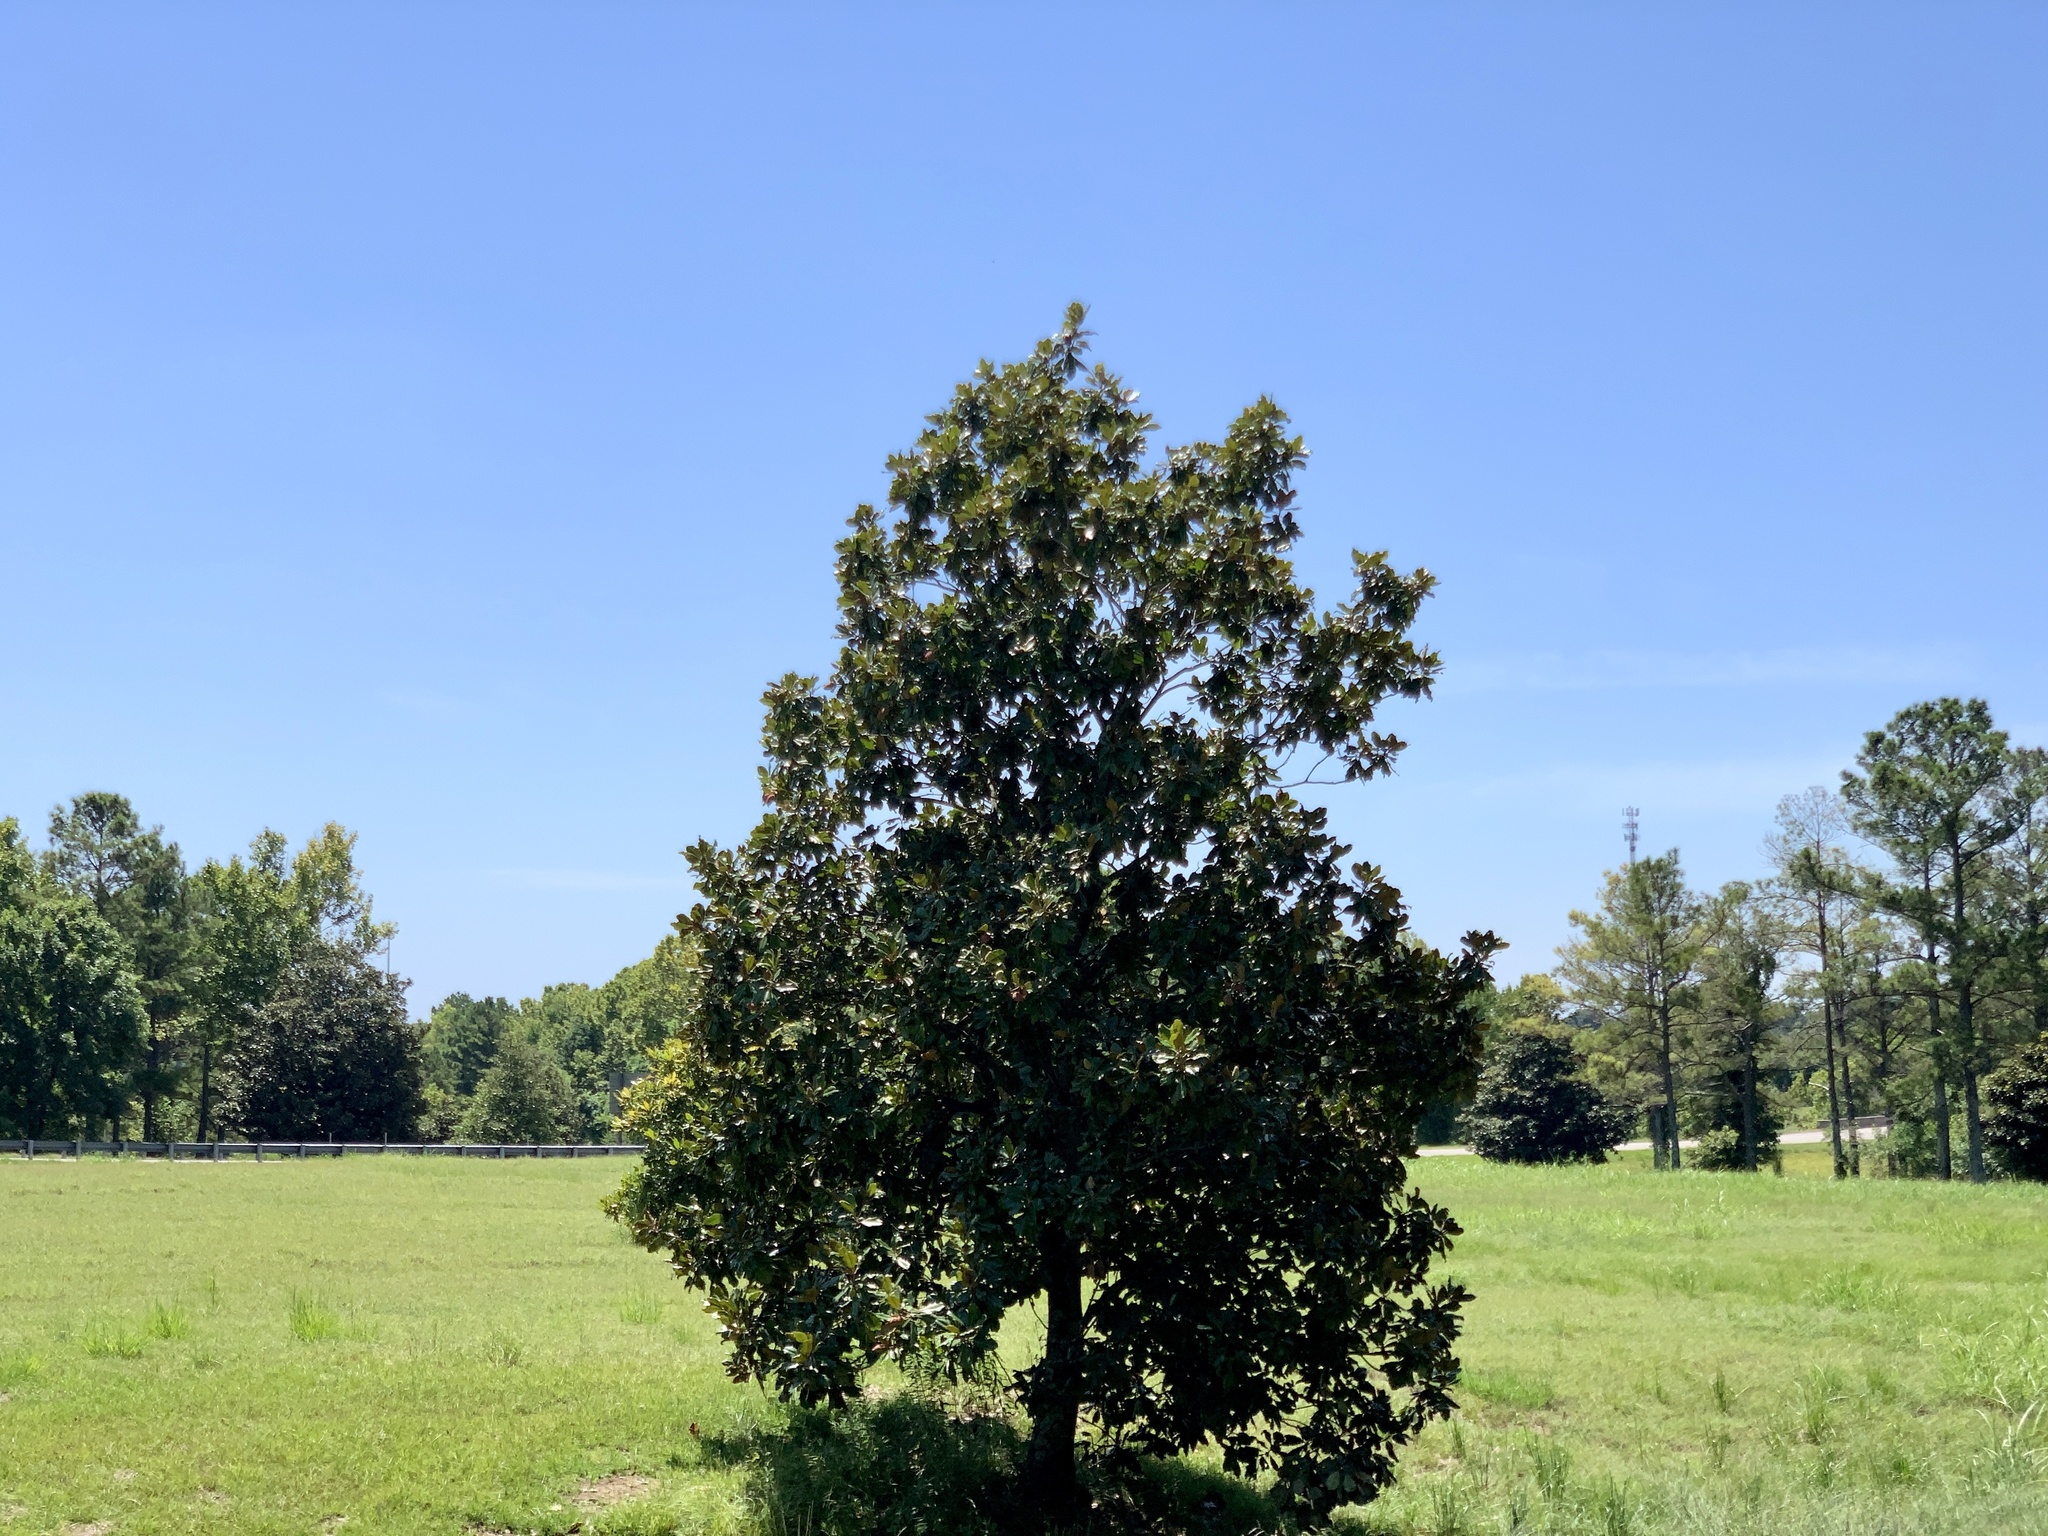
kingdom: Plantae
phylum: Tracheophyta
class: Magnoliopsida
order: Magnoliales
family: Magnoliaceae
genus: Magnolia
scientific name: Magnolia grandiflora
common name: Southern magnolia
